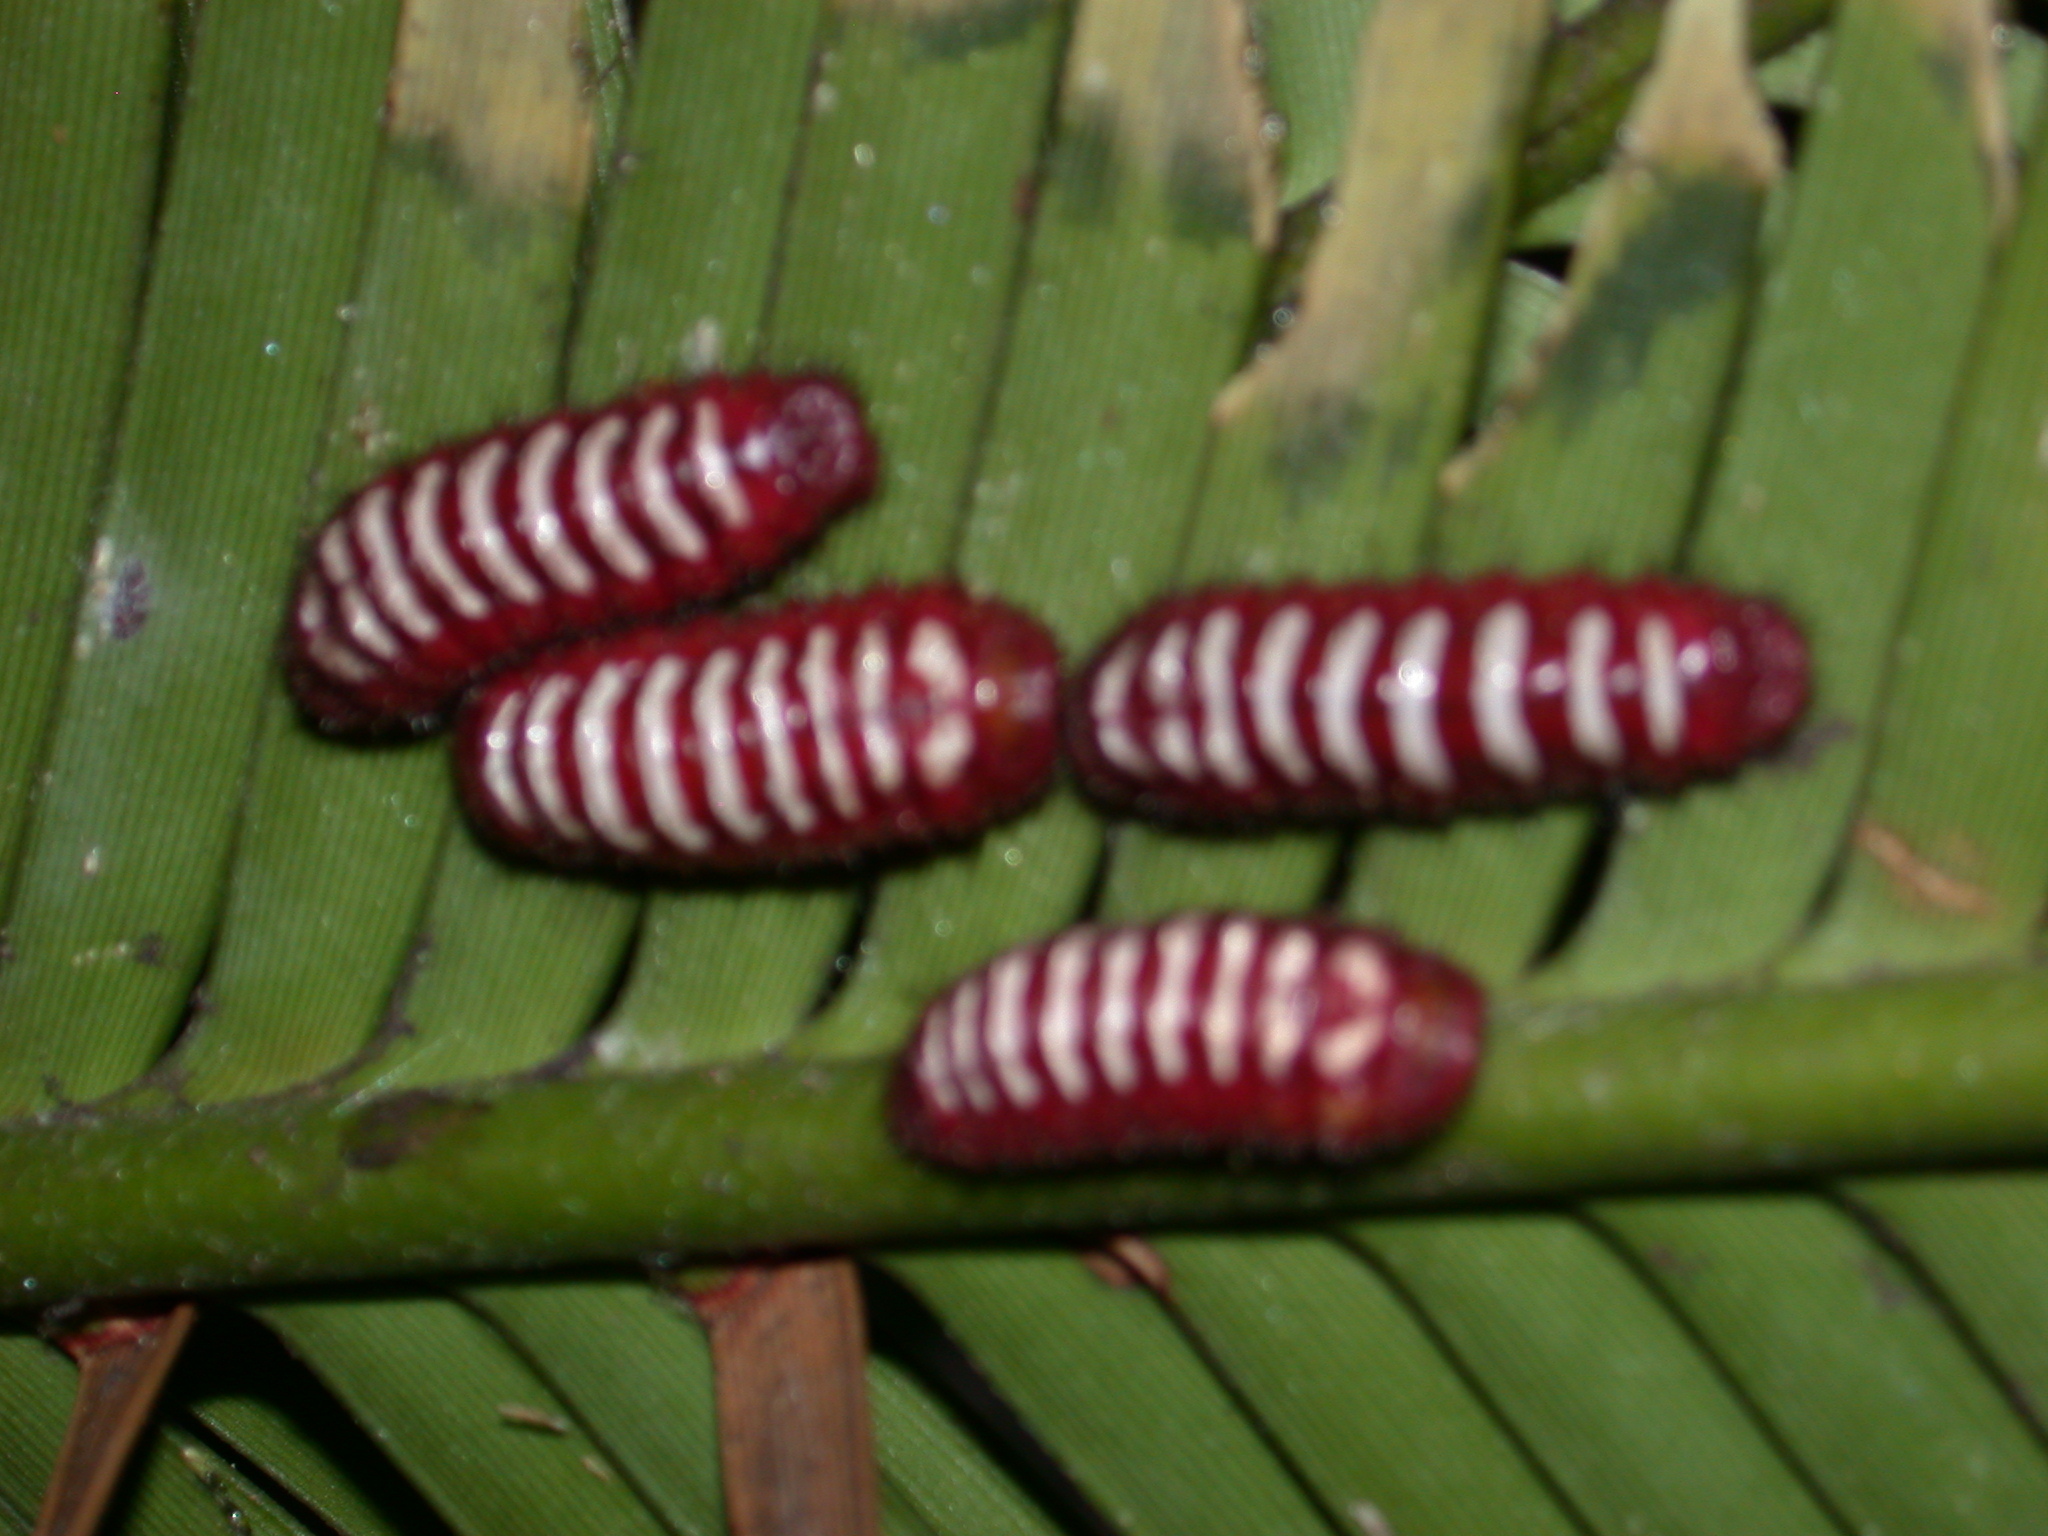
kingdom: Animalia
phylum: Arthropoda
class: Insecta
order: Lepidoptera
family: Lycaenidae
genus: Eumaeus
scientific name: Eumaeus childrenae
